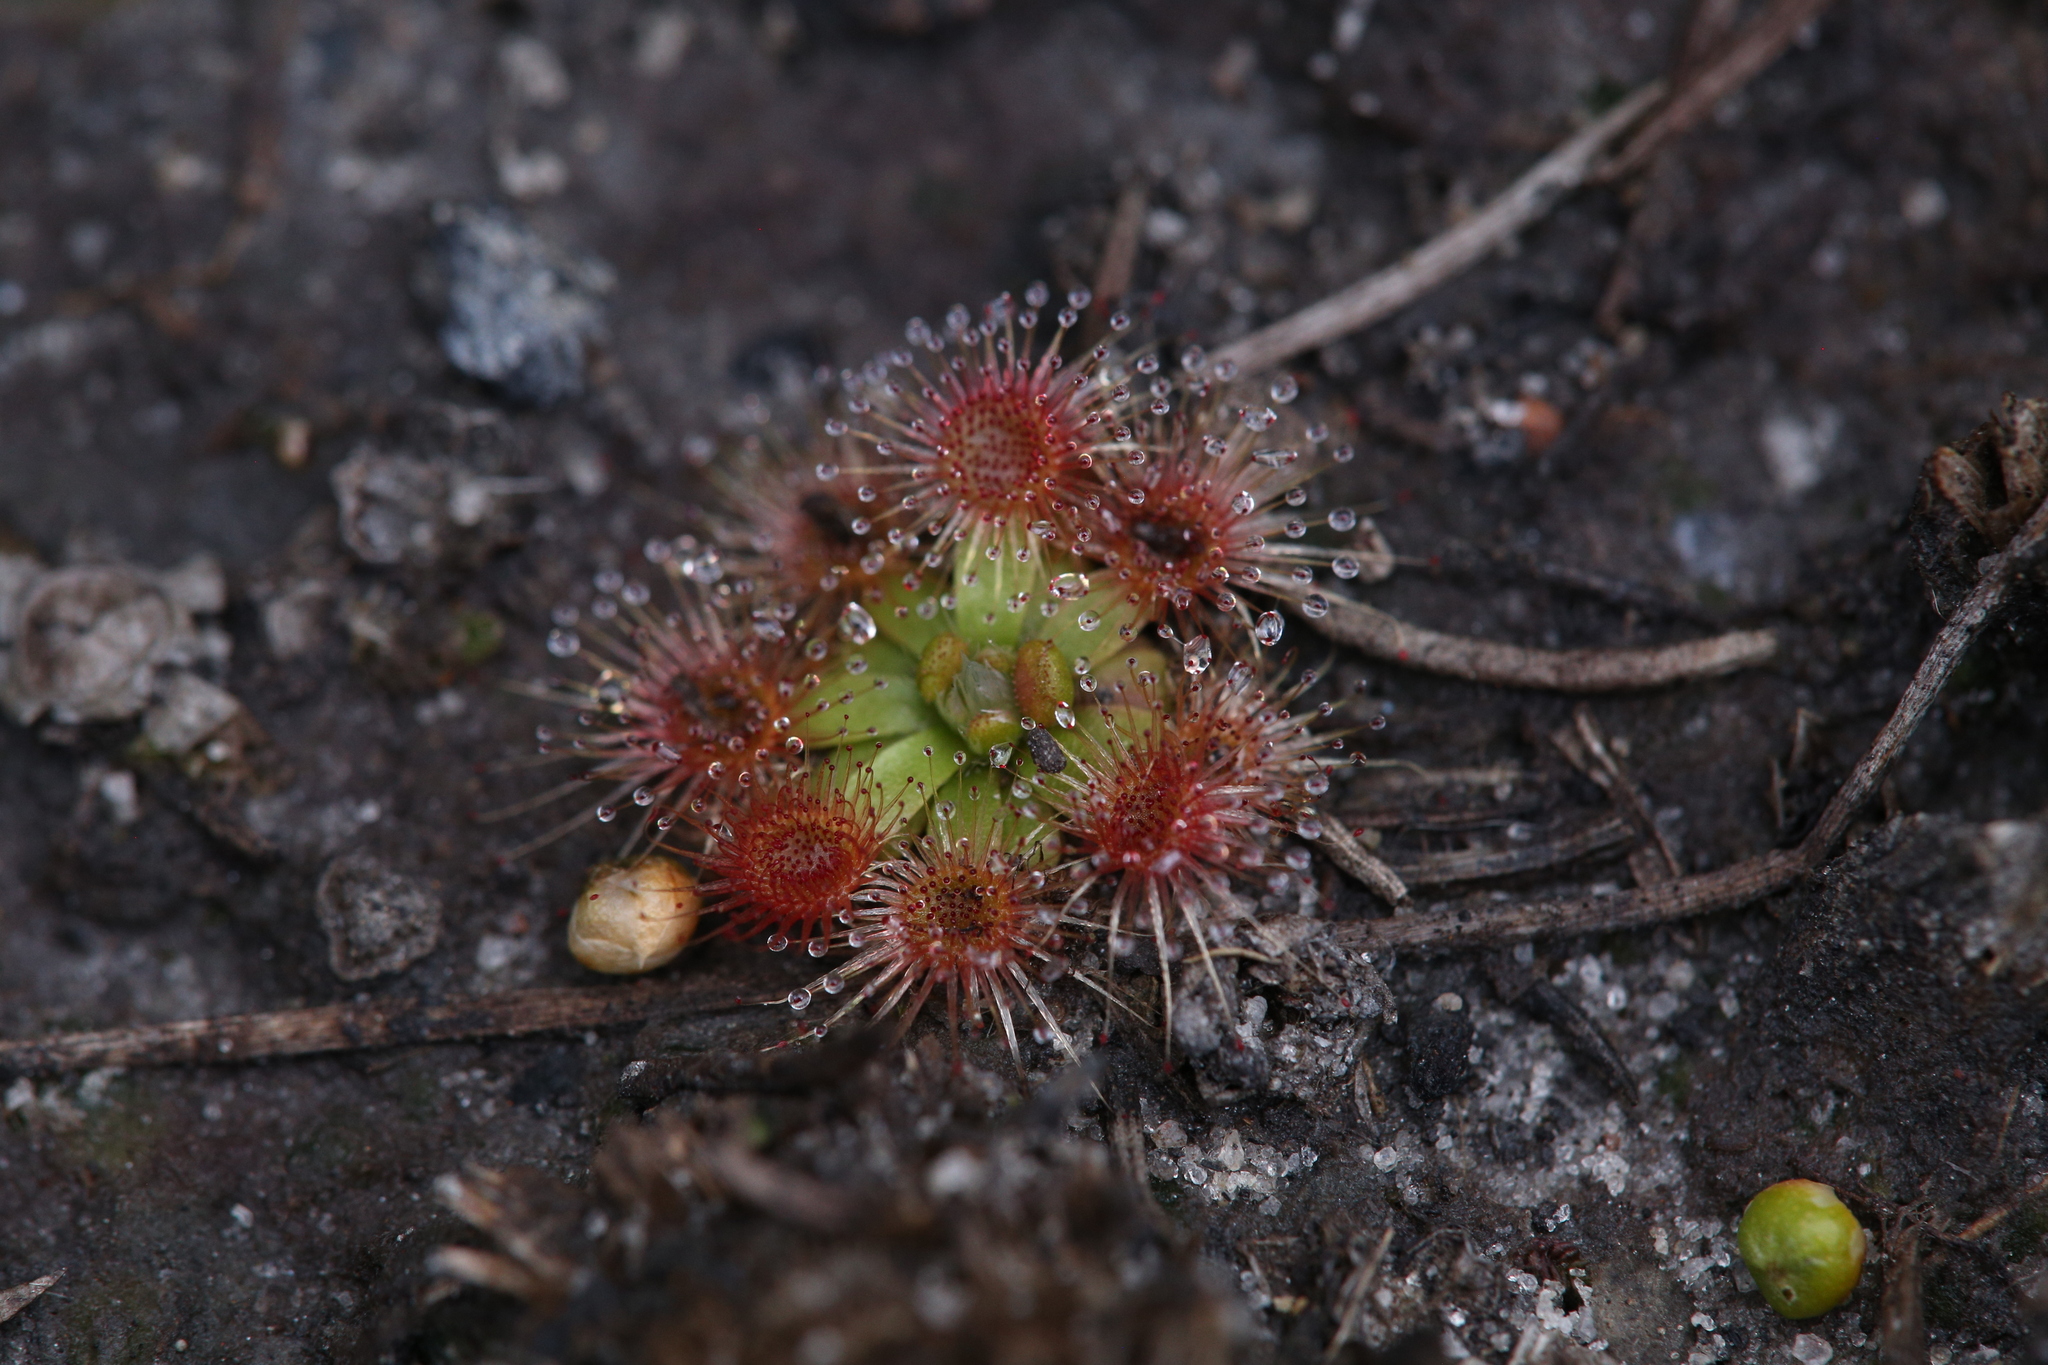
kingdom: Plantae
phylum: Tracheophyta
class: Magnoliopsida
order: Caryophyllales
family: Droseraceae
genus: Drosera
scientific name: Drosera pulchella
